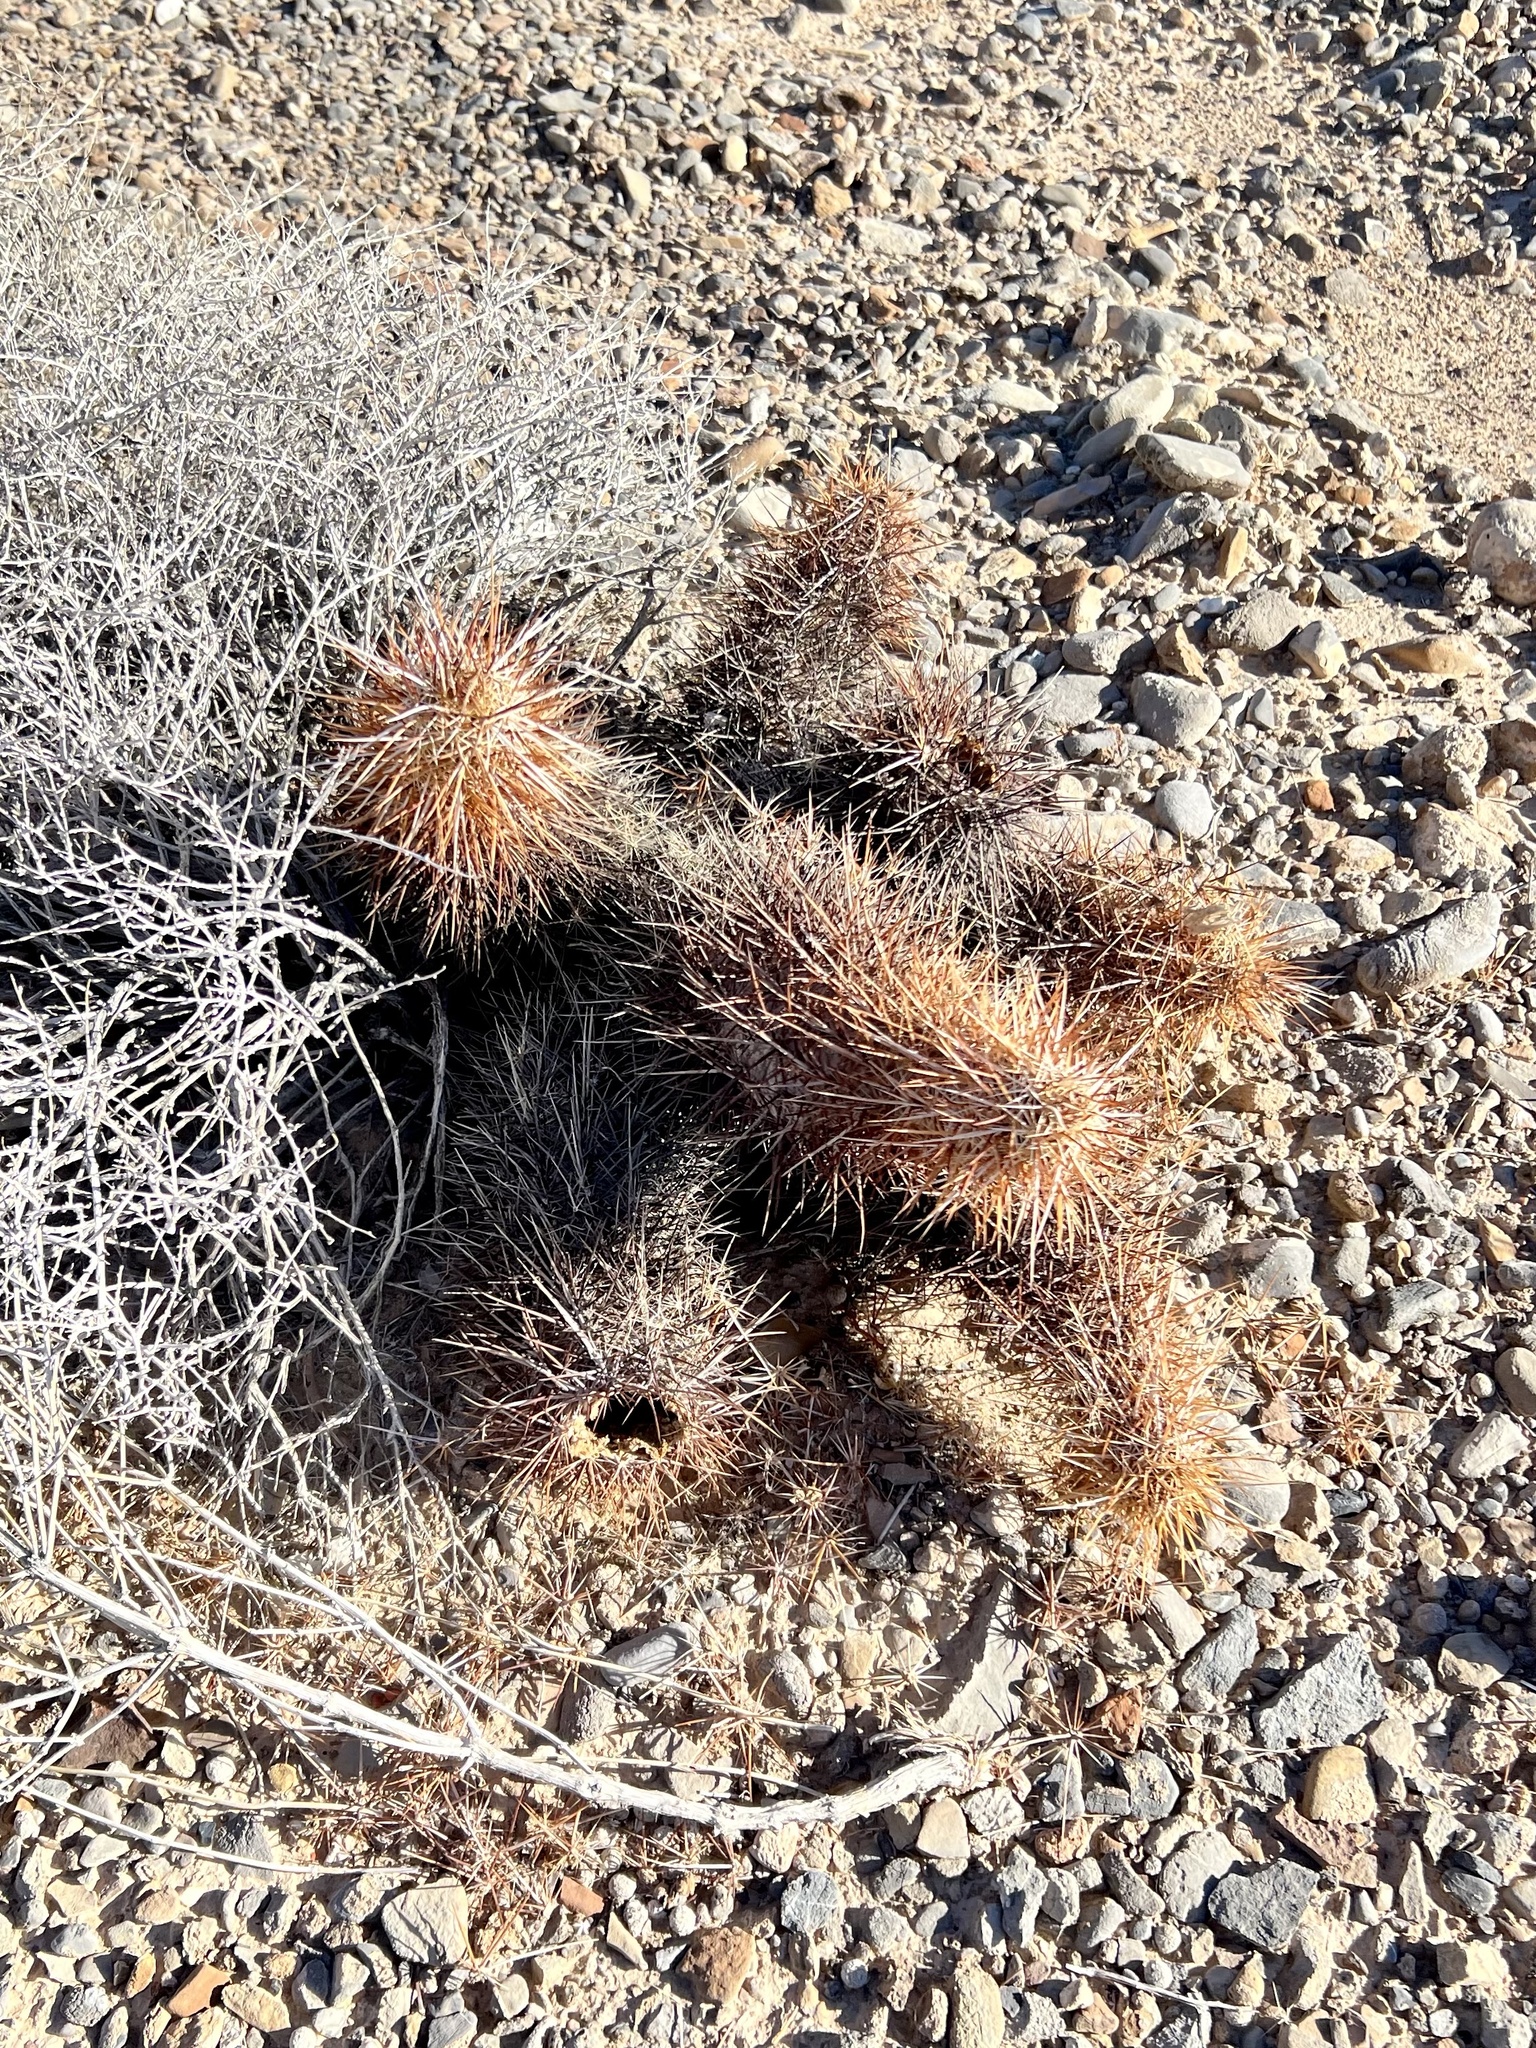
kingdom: Plantae
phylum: Tracheophyta
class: Magnoliopsida
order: Caryophyllales
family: Cactaceae
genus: Echinocereus
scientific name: Echinocereus engelmannii
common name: Engelmann's hedgehog cactus
